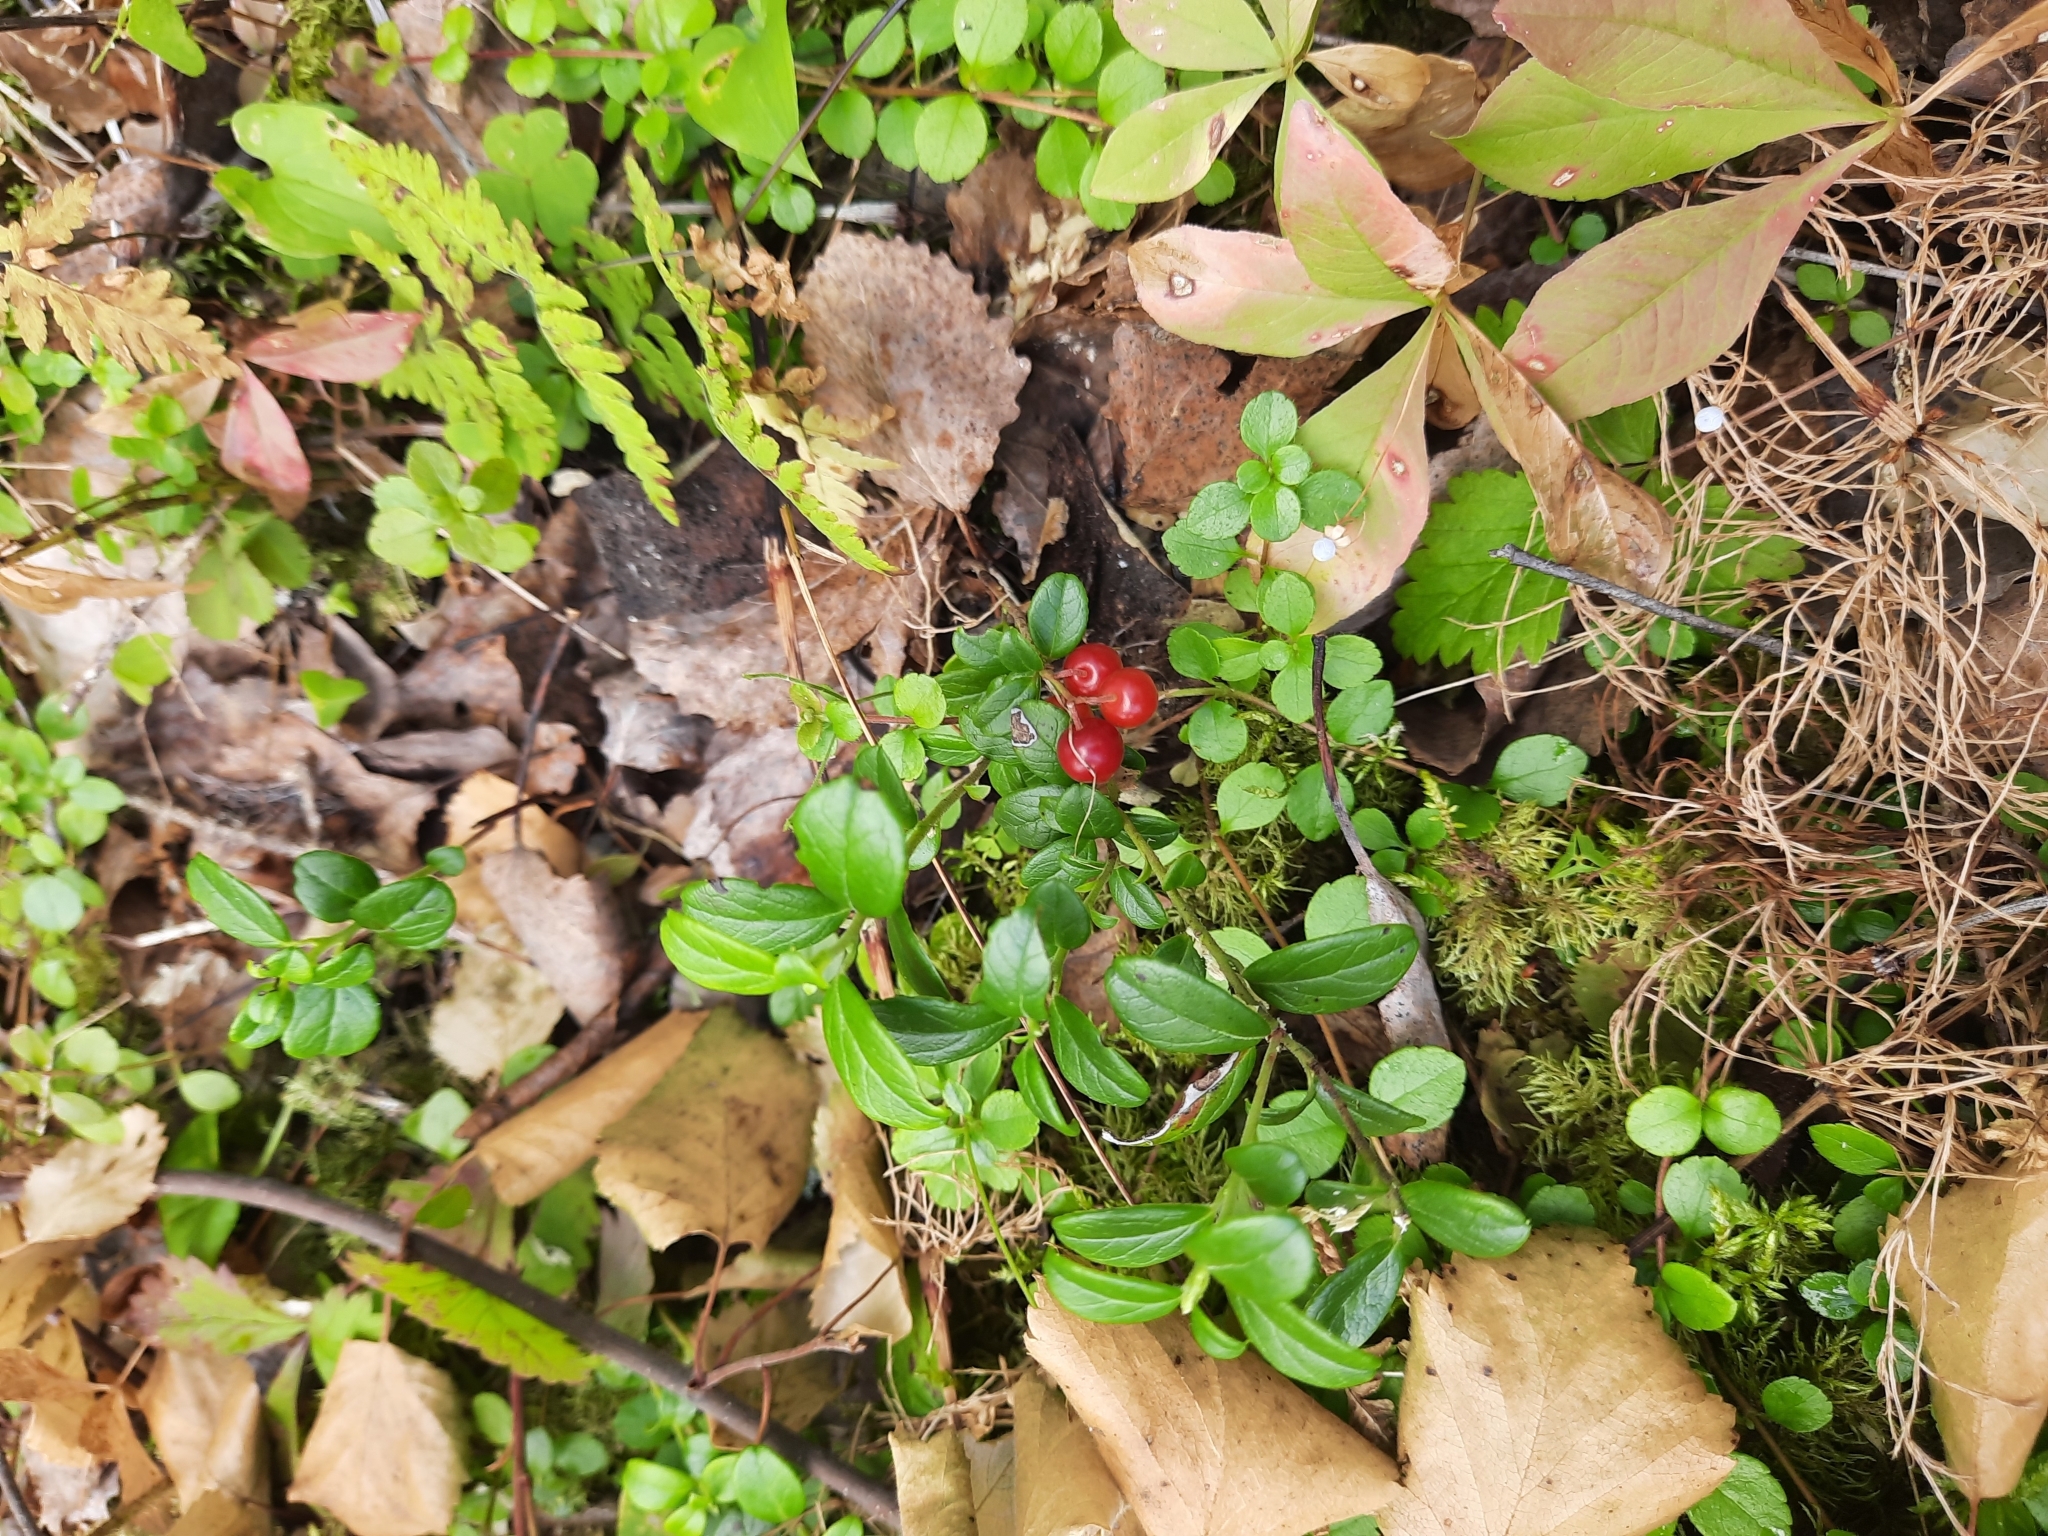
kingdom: Plantae
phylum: Tracheophyta
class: Magnoliopsida
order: Ericales
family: Ericaceae
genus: Vaccinium
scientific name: Vaccinium vitis-idaea
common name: Cowberry
